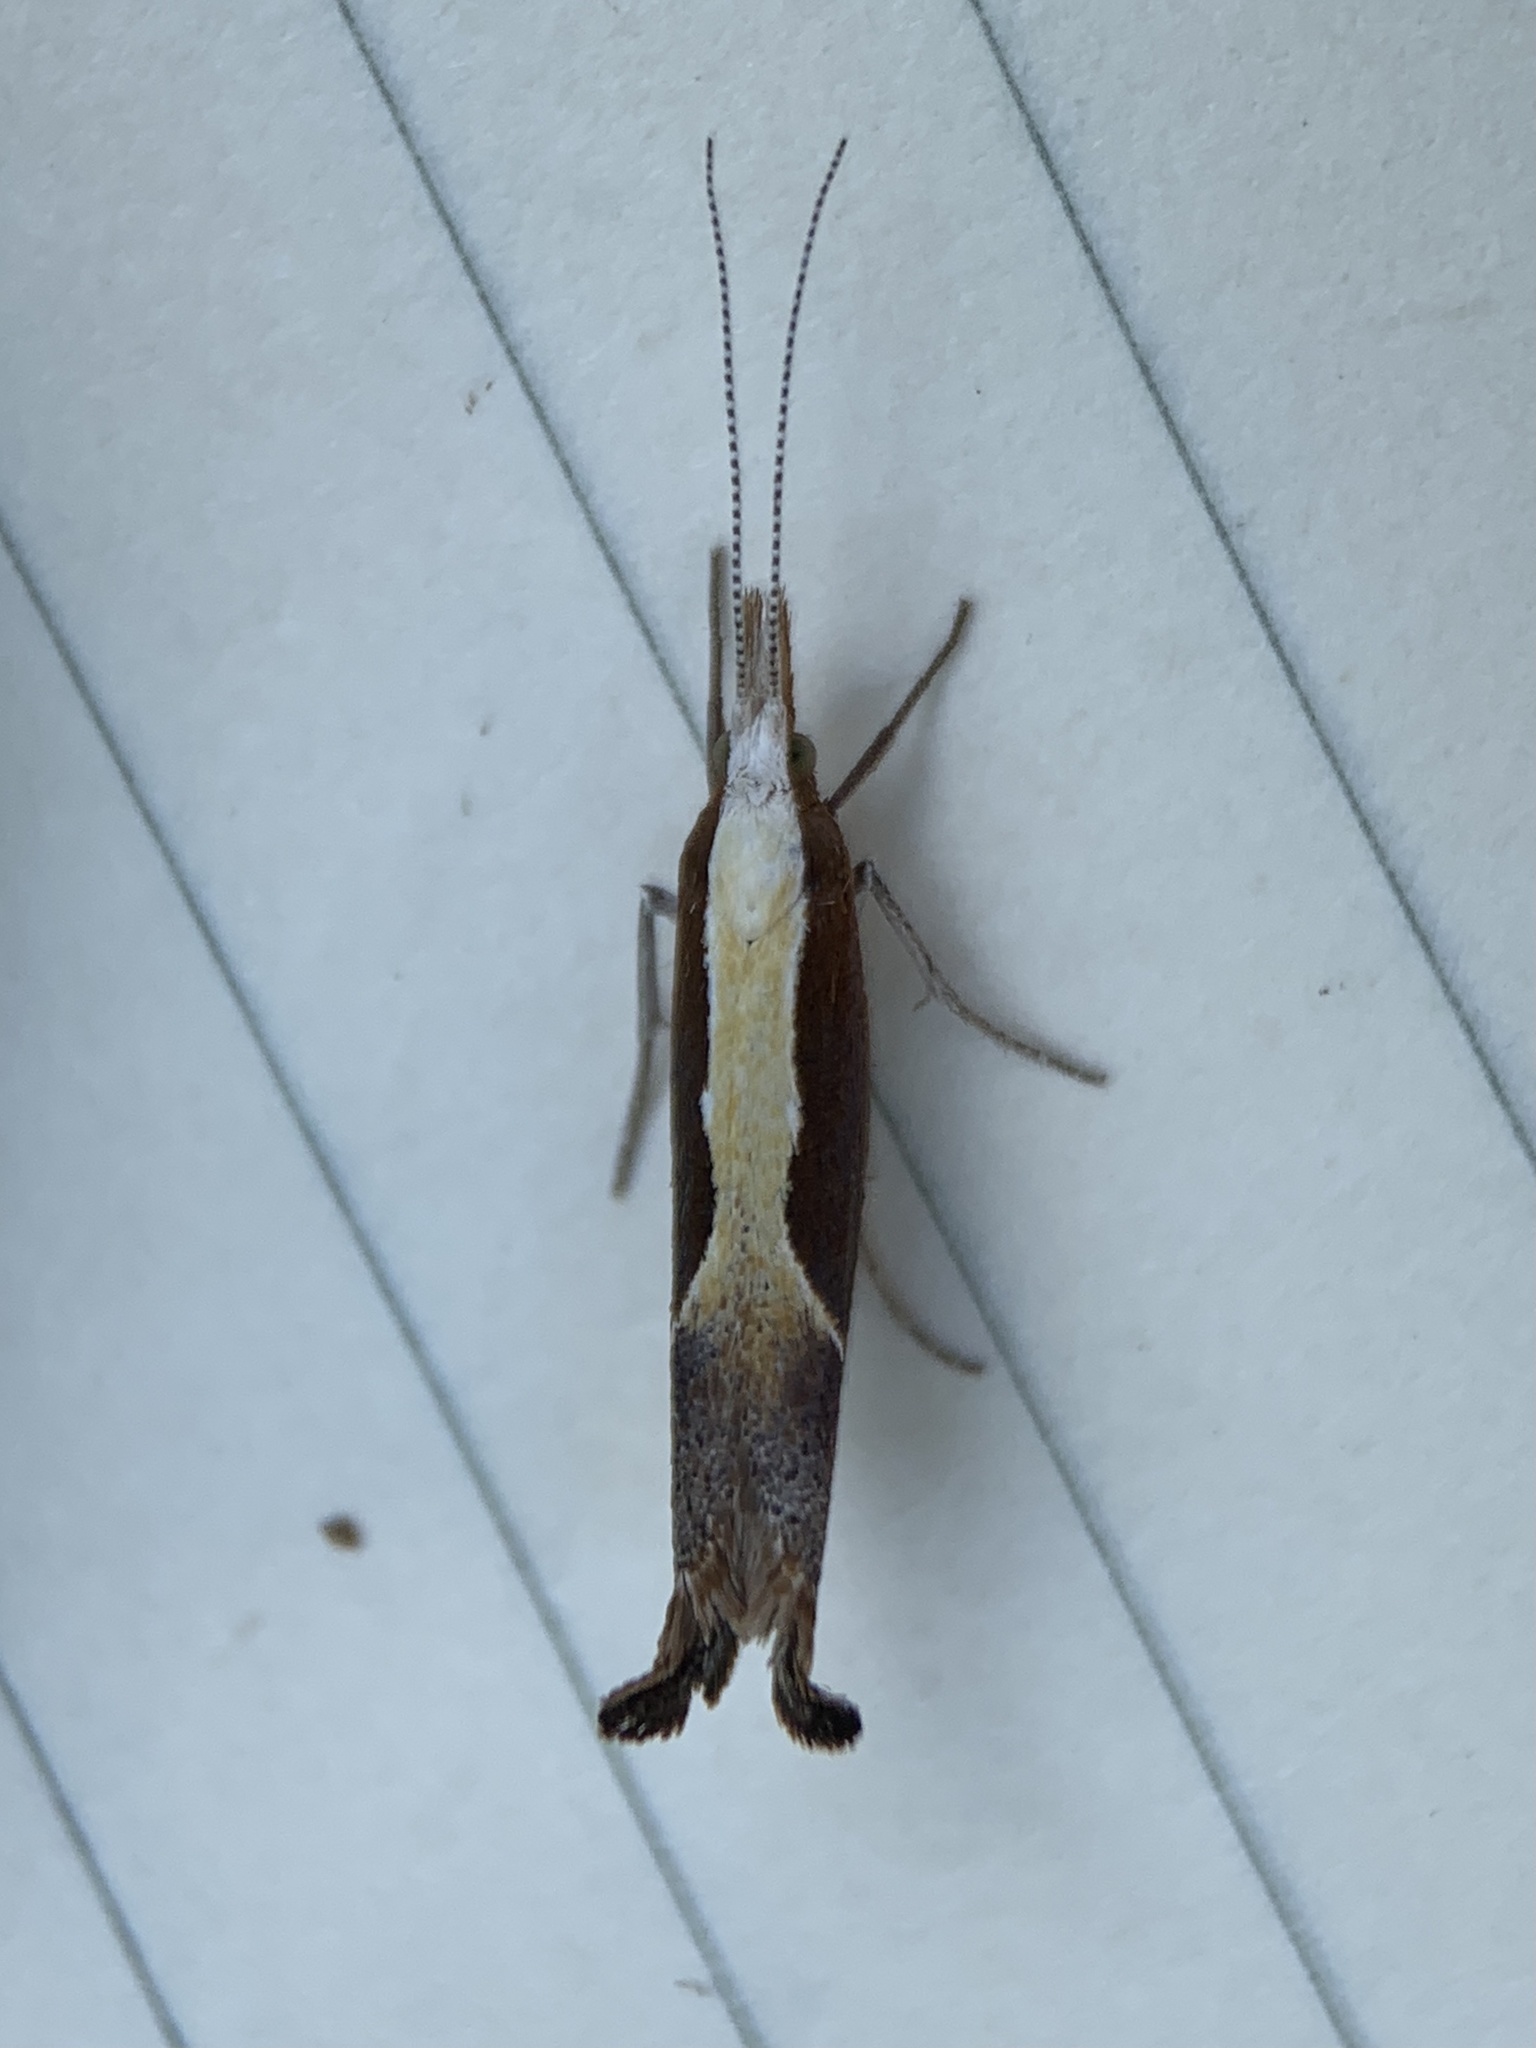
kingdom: Animalia
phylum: Arthropoda
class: Insecta
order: Lepidoptera
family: Ypsolophidae
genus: Ypsolopha
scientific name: Ypsolopha dentella
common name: Honeysuckle moth
